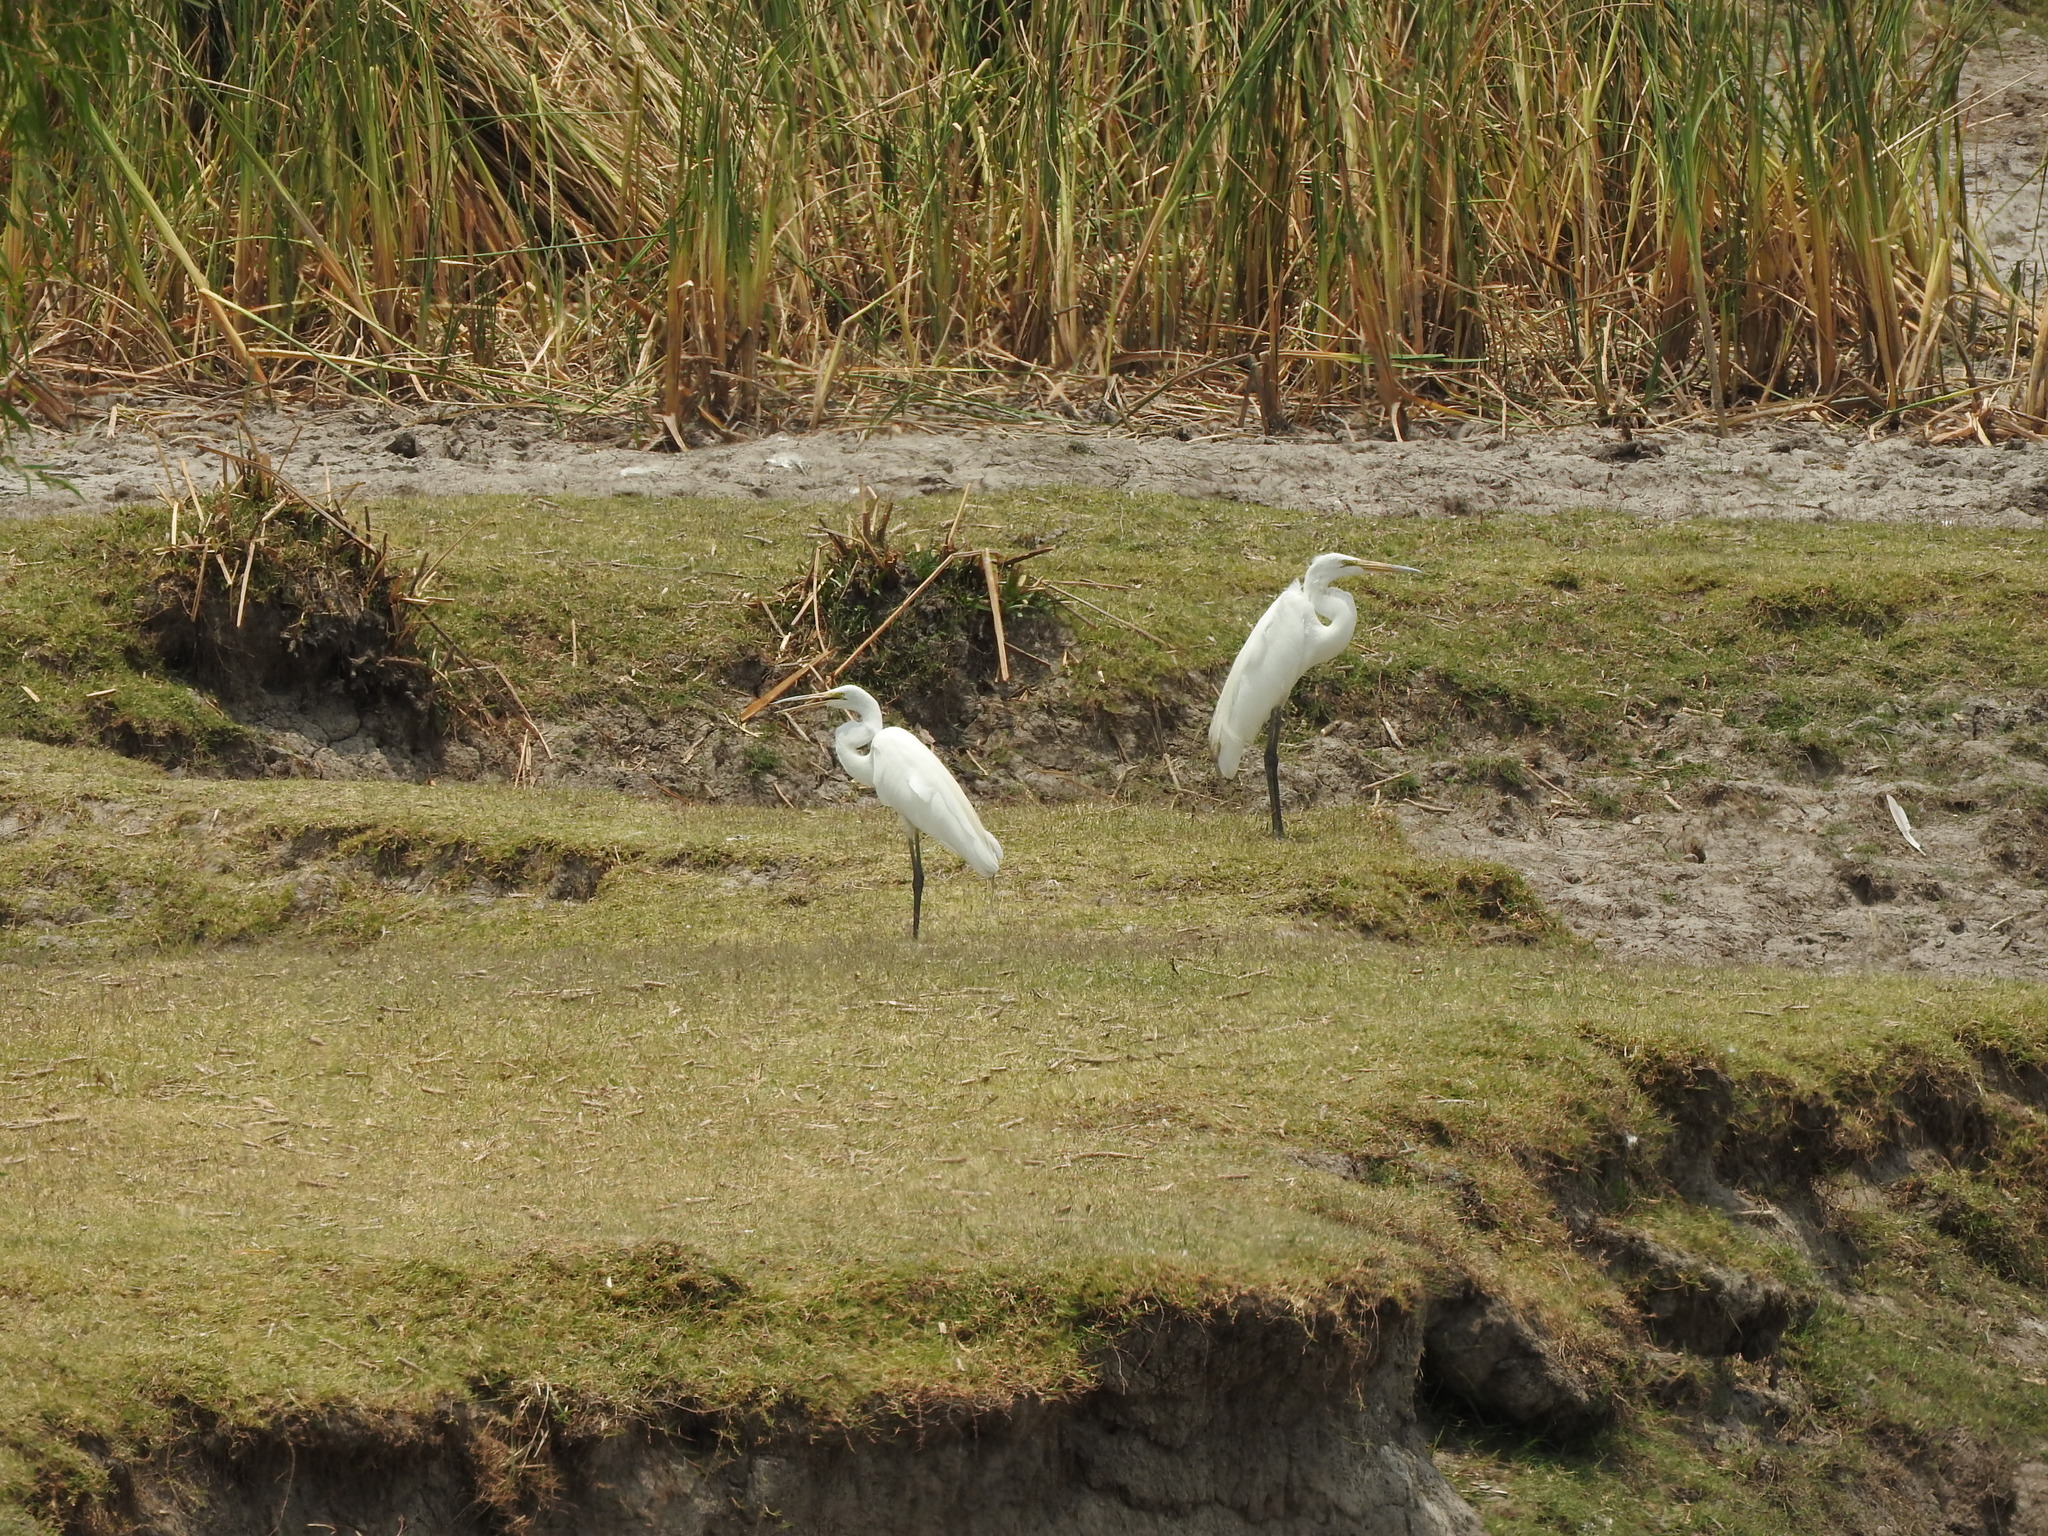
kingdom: Animalia
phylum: Chordata
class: Aves
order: Pelecaniformes
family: Ardeidae
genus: Ardea
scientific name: Ardea alba
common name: Great egret
